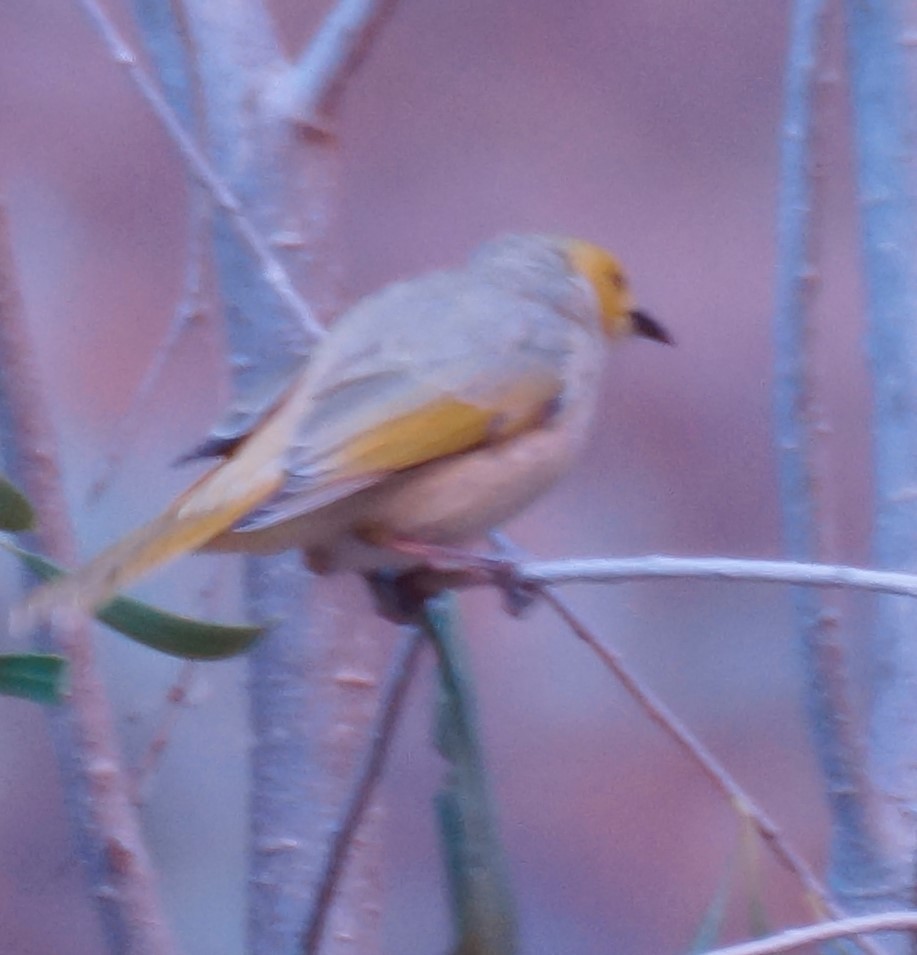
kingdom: Animalia
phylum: Chordata
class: Aves
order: Passeriformes
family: Meliphagidae
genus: Ptilotula
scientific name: Ptilotula penicillata
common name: White-plumed honeyeater
